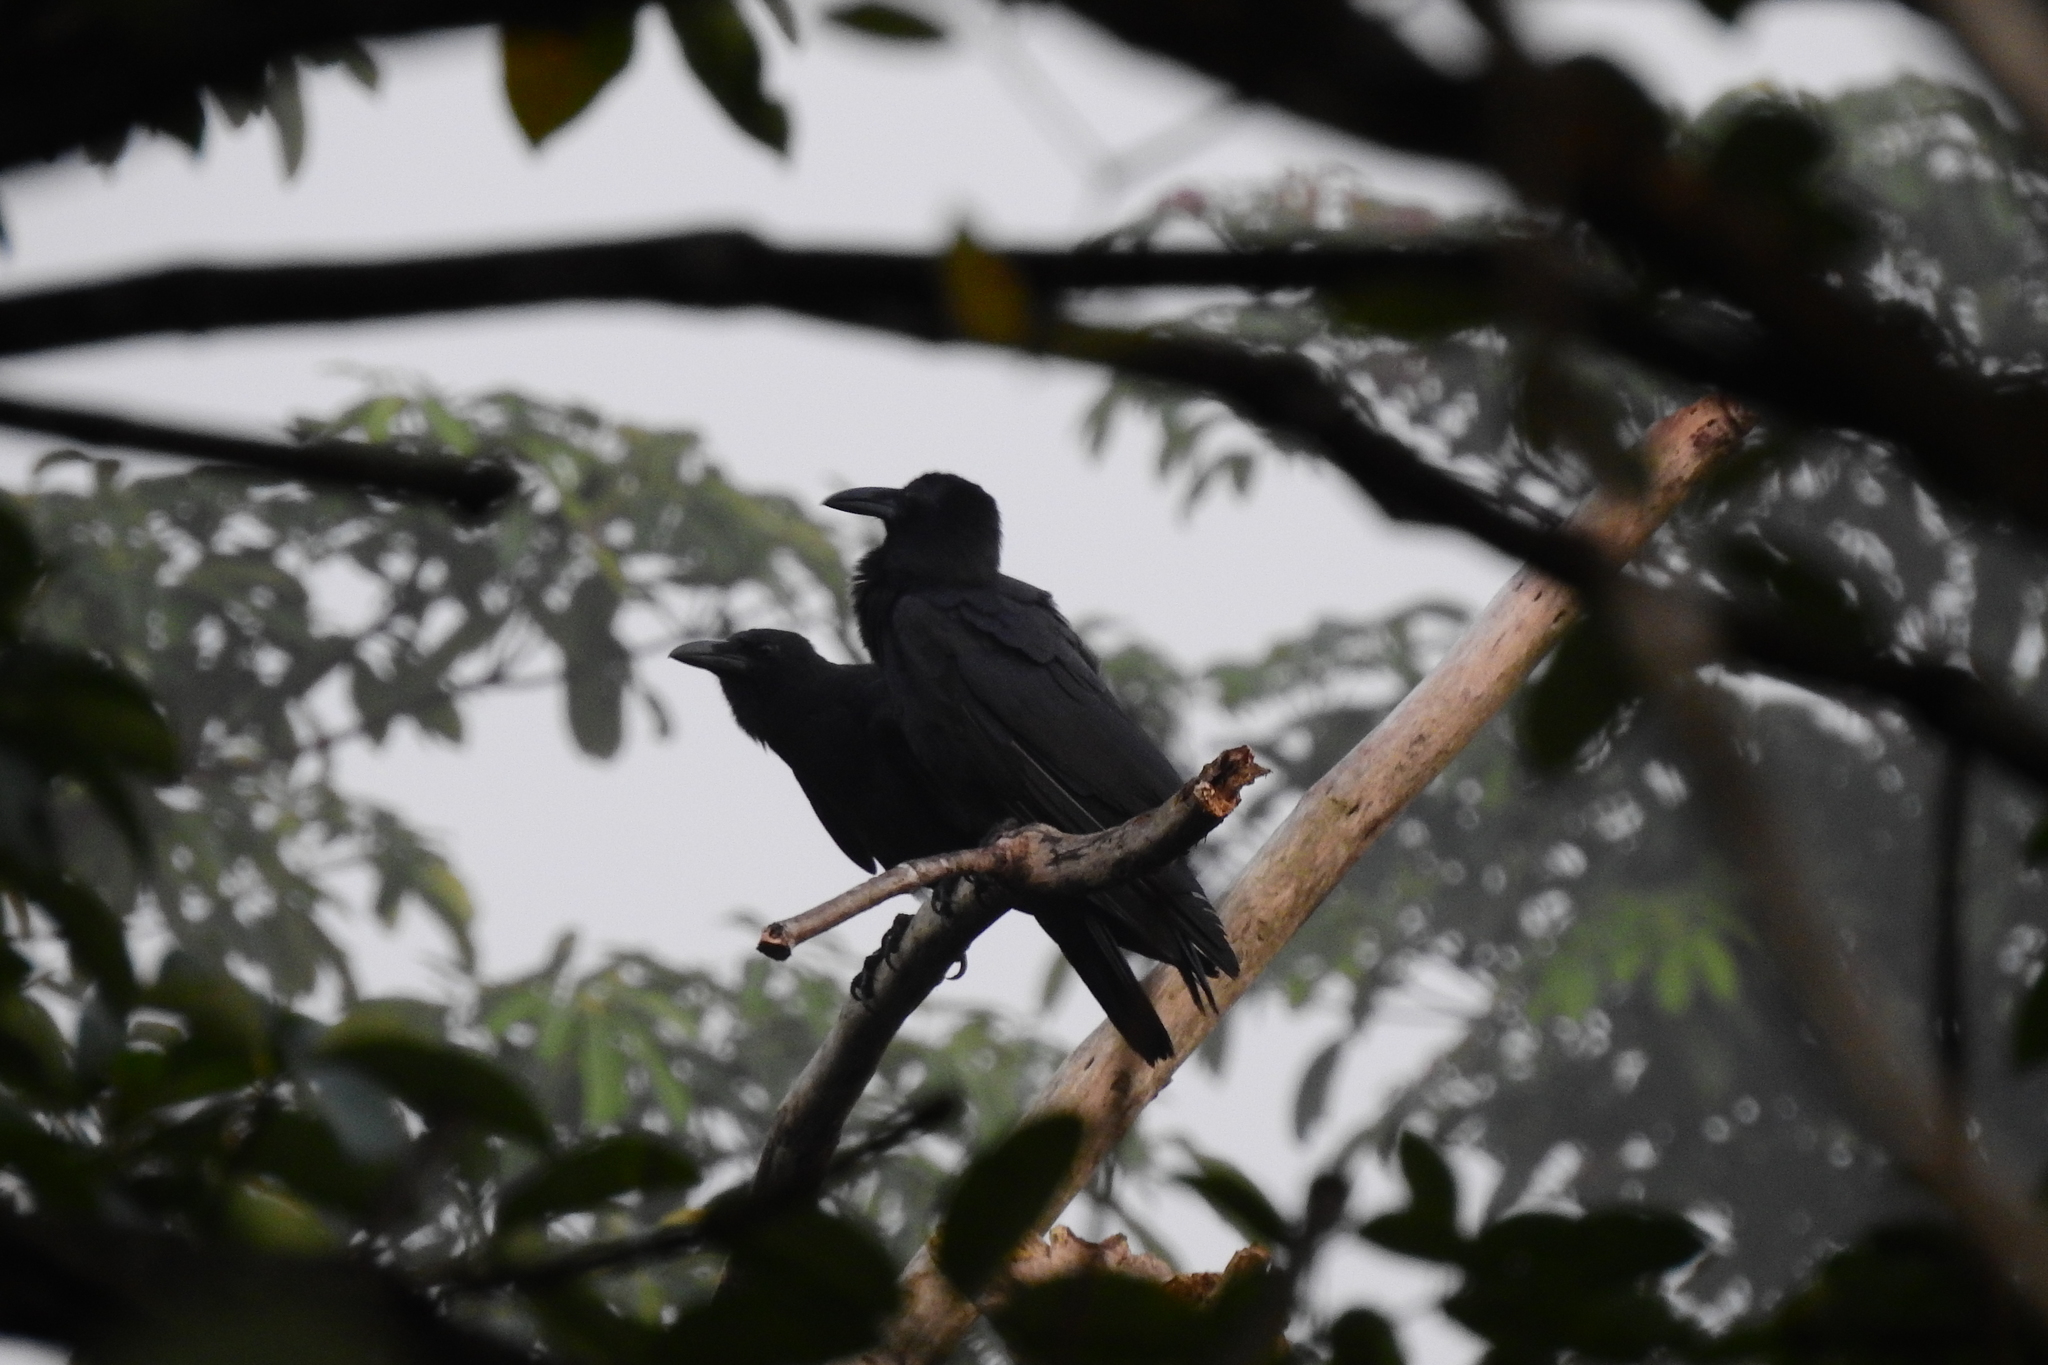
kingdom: Animalia
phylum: Chordata
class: Aves
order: Passeriformes
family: Corvidae
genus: Corvus
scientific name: Corvus enca
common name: Slender-billed crow
